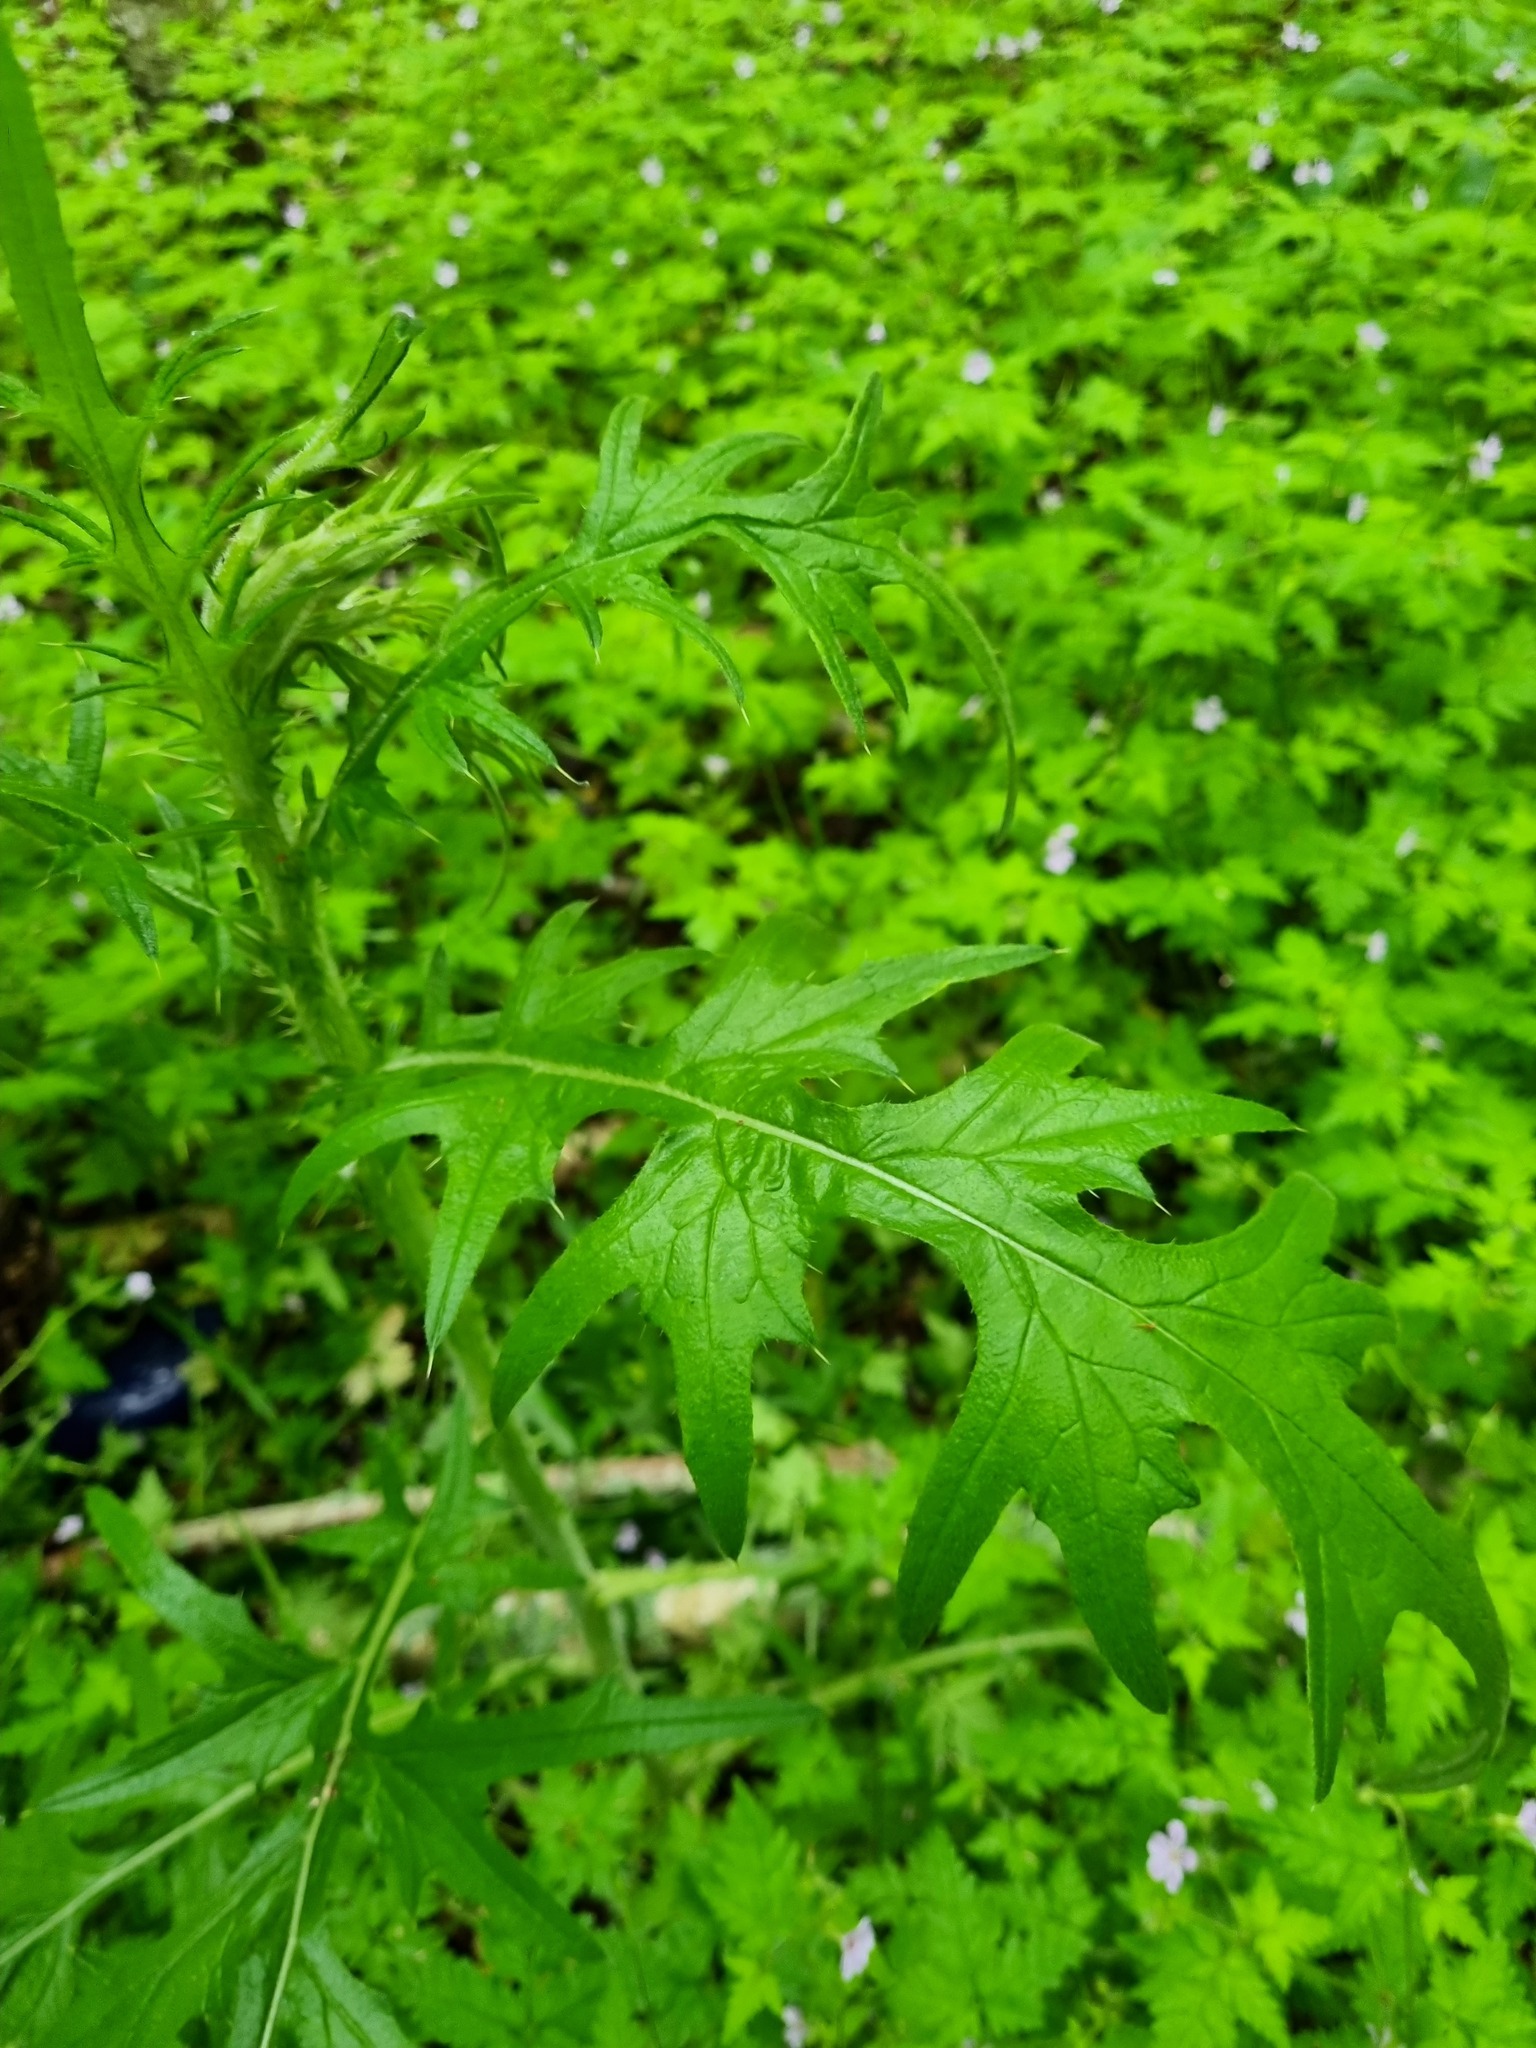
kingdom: Plantae
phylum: Tracheophyta
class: Magnoliopsida
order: Asterales
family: Asteraceae
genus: Cirsium
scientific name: Cirsium vulgare
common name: Bull thistle
